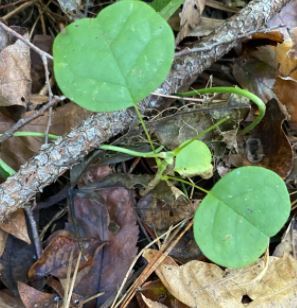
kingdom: Plantae
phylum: Tracheophyta
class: Magnoliopsida
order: Magnoliales
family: Magnoliaceae
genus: Liriodendron
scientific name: Liriodendron tulipifera
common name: Tulip tree
